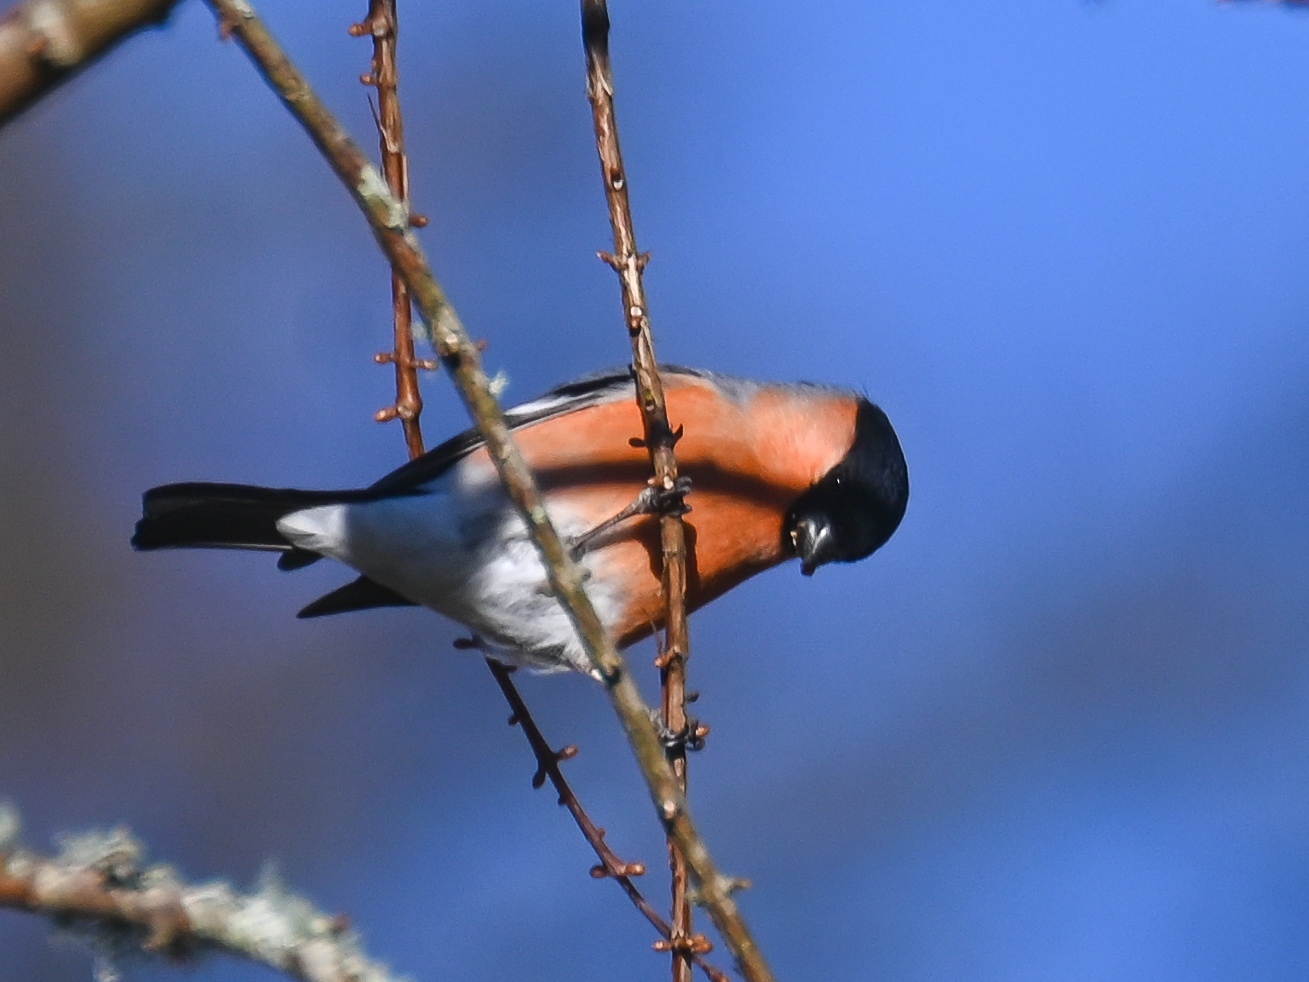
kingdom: Animalia
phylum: Chordata
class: Aves
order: Passeriformes
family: Fringillidae
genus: Pyrrhula
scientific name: Pyrrhula pyrrhula
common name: Eurasian bullfinch
